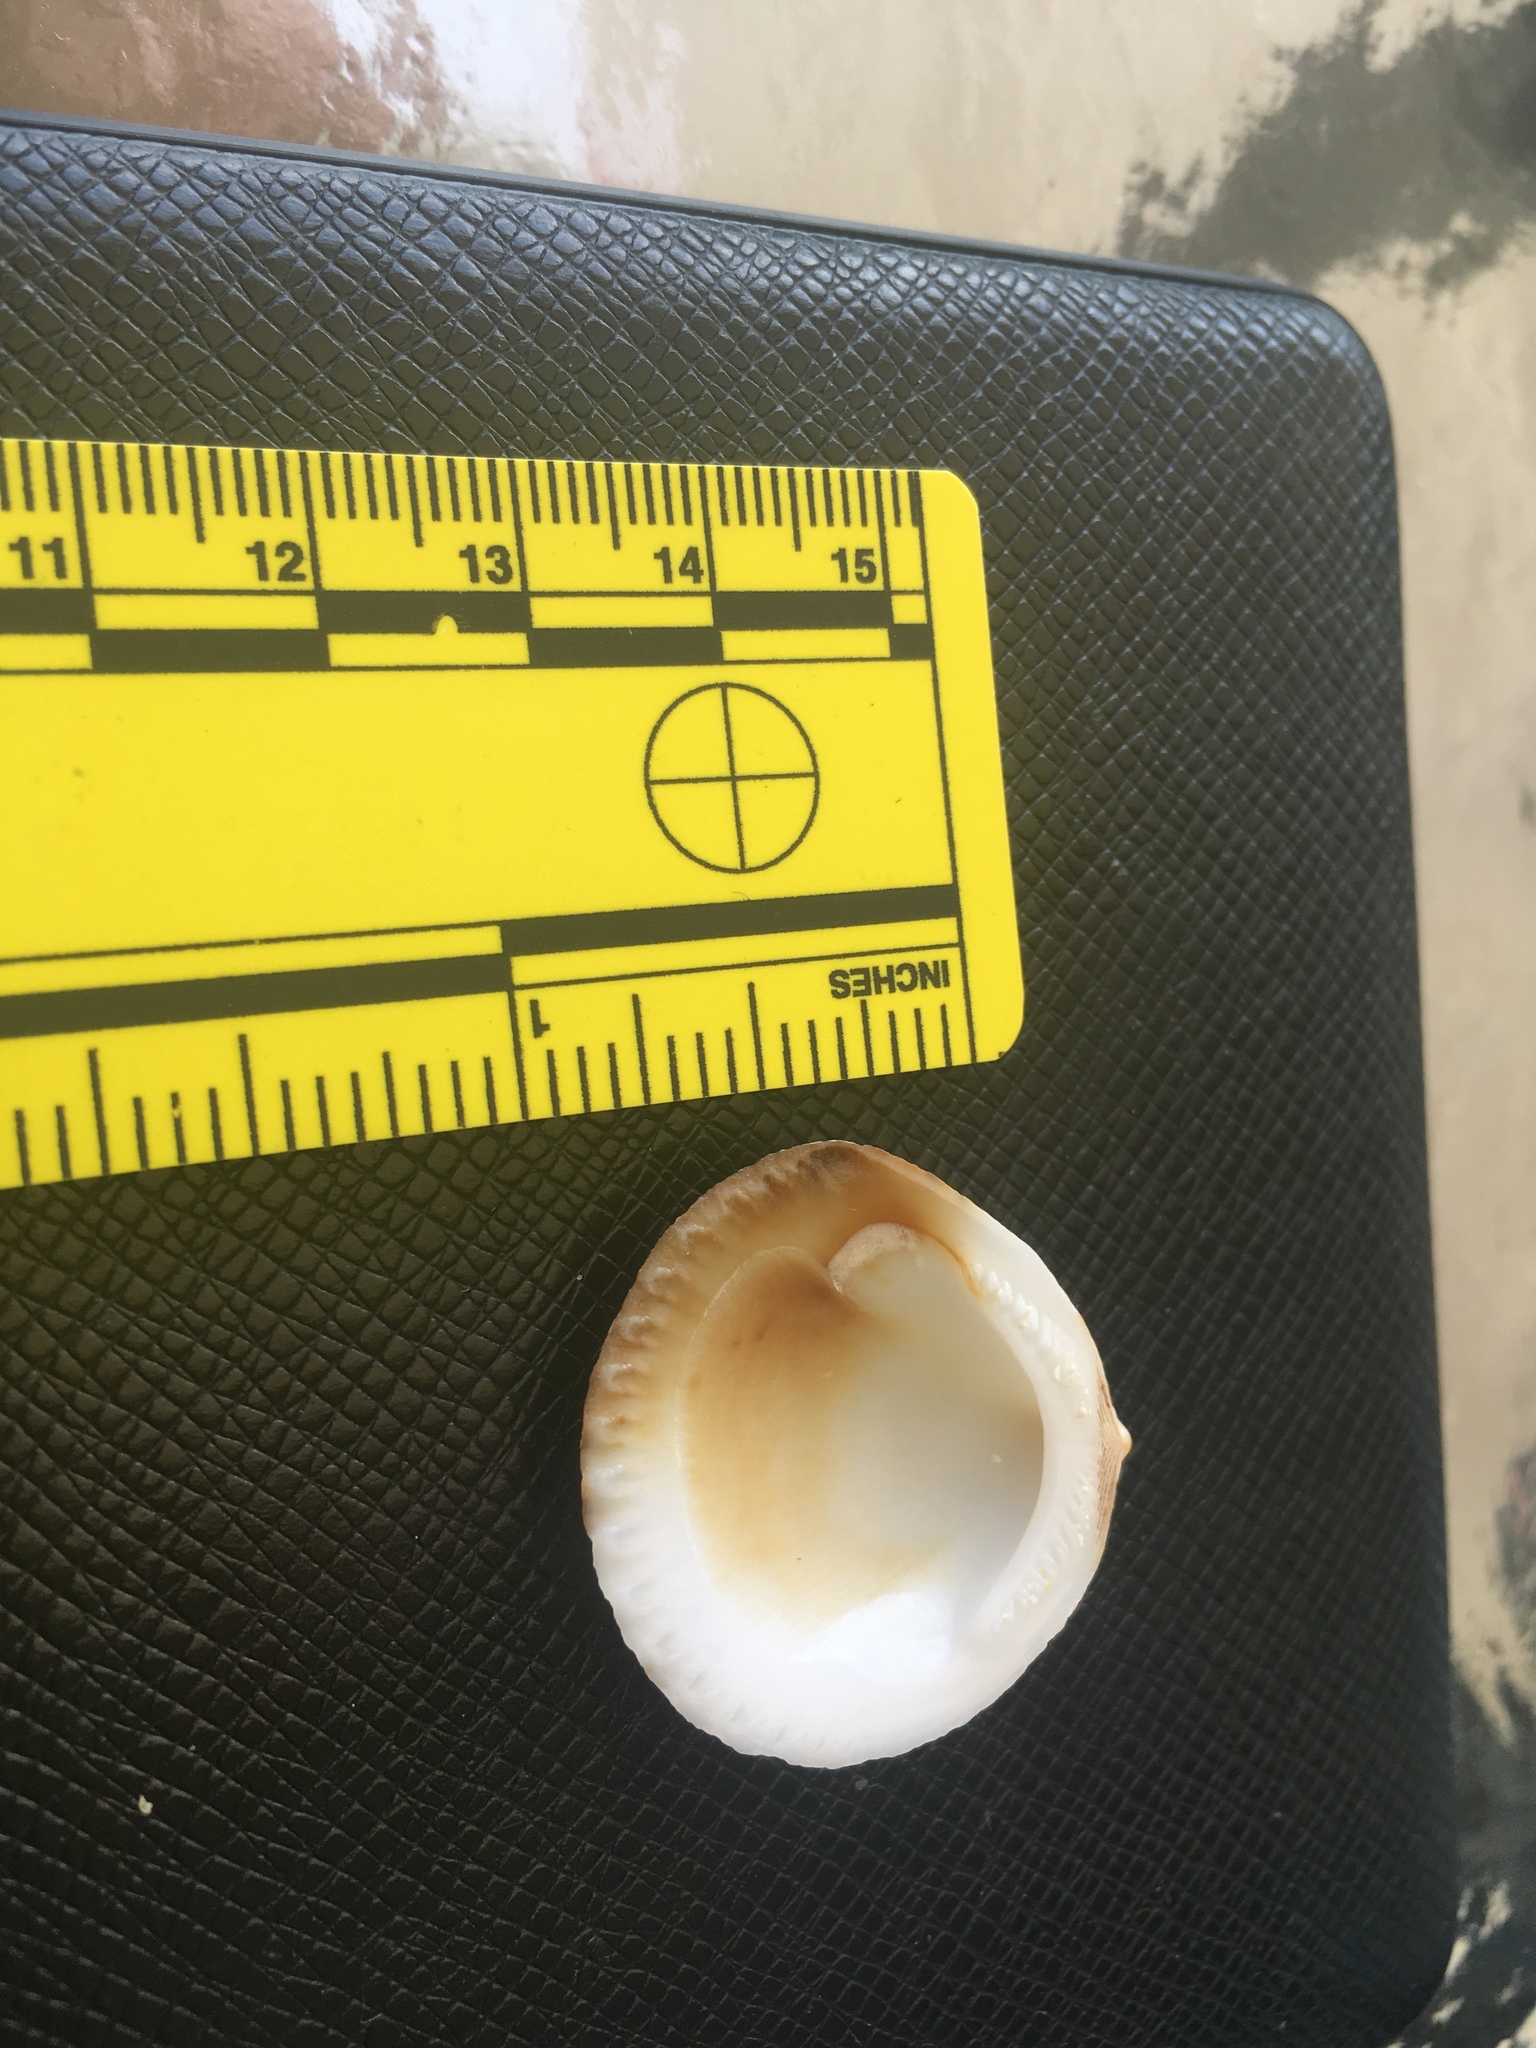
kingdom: Animalia
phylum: Mollusca
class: Bivalvia
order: Arcida
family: Glycymerididae
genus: Tucetona
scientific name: Tucetona pectinata
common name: Comb bittersweet
